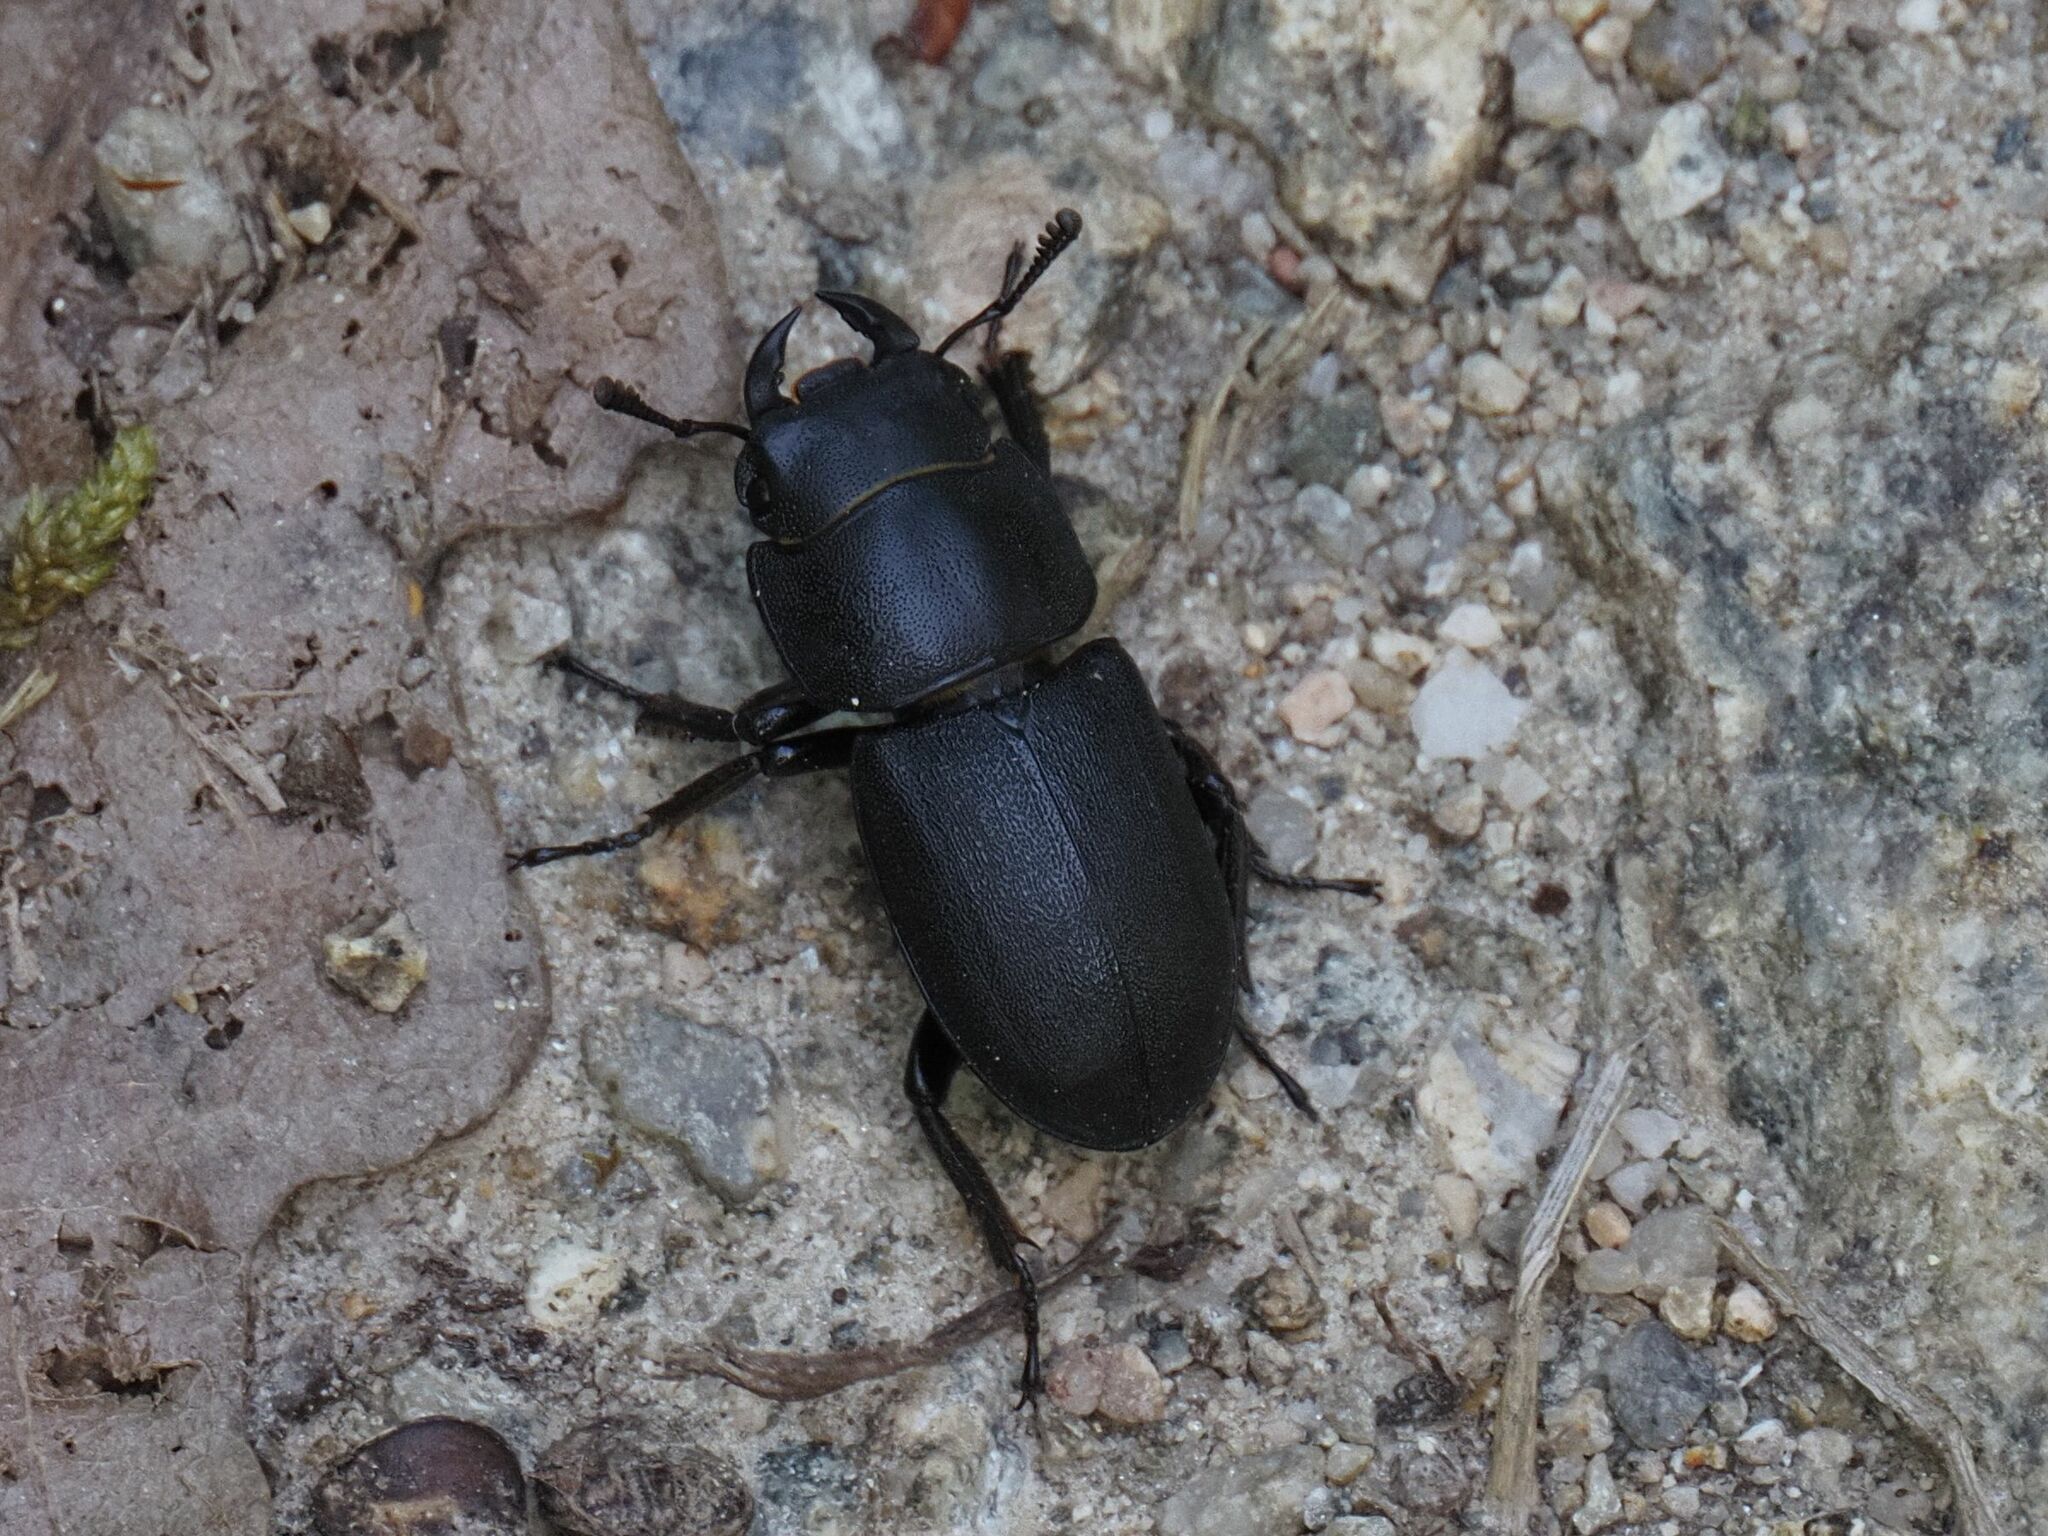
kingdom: Animalia
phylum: Arthropoda
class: Insecta
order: Coleoptera
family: Lucanidae
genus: Dorcus
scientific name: Dorcus parallelipipedus
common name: Lesser stag beetle
